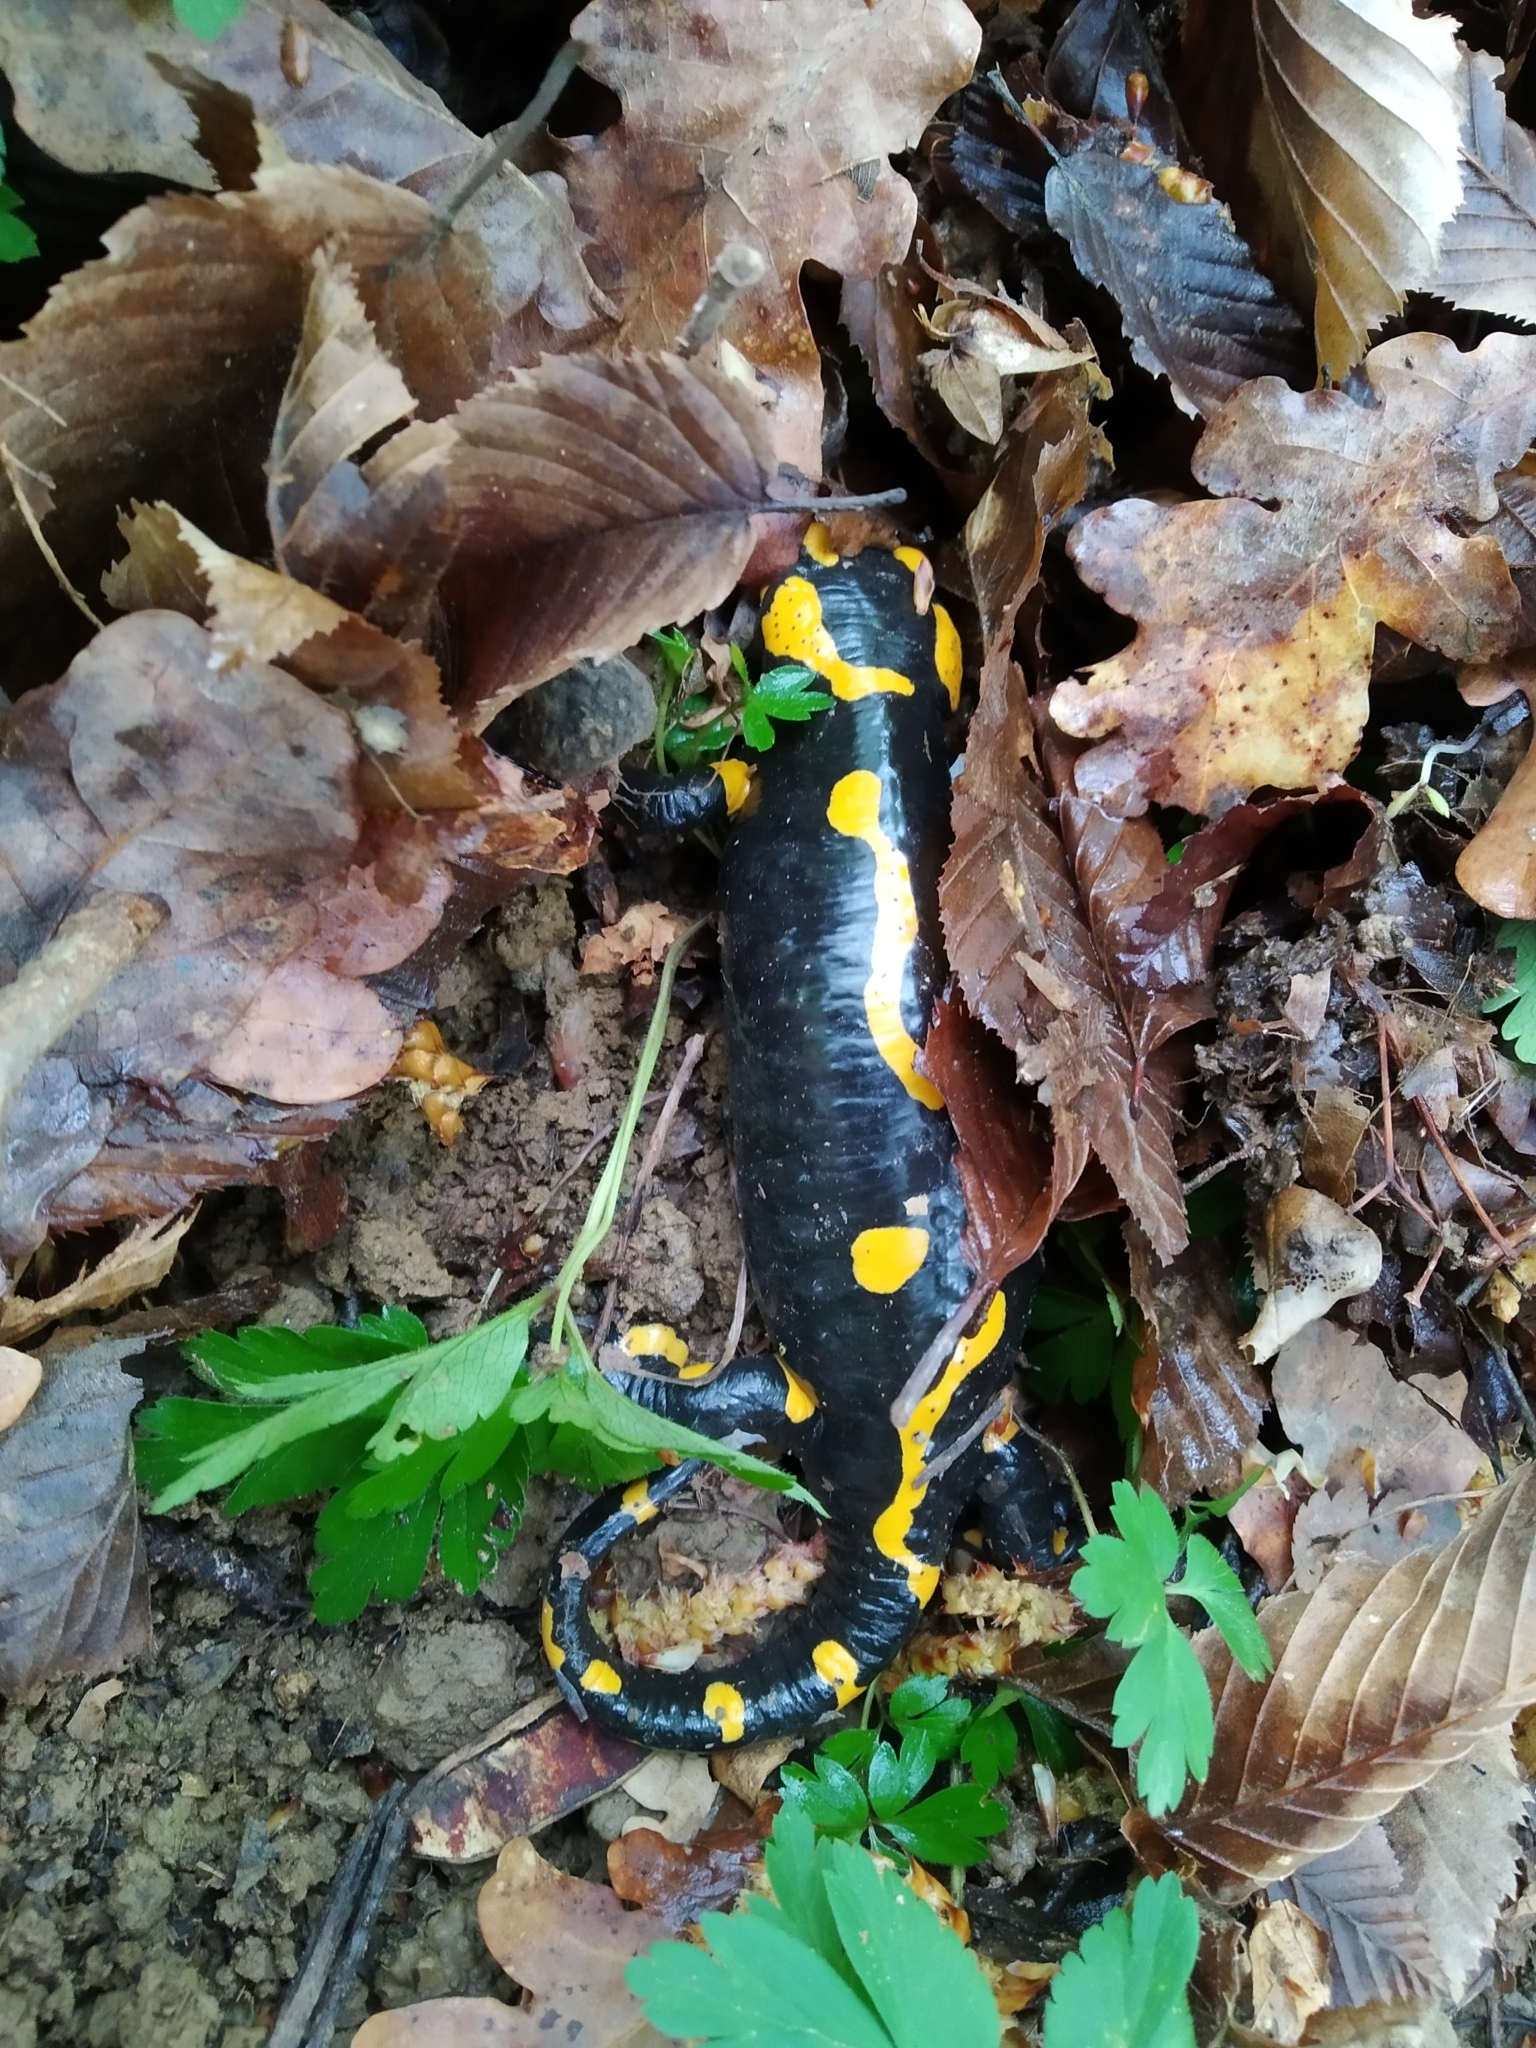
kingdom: Animalia
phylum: Chordata
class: Amphibia
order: Caudata
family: Salamandridae
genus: Salamandra
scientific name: Salamandra salamandra
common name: Fire salamander
